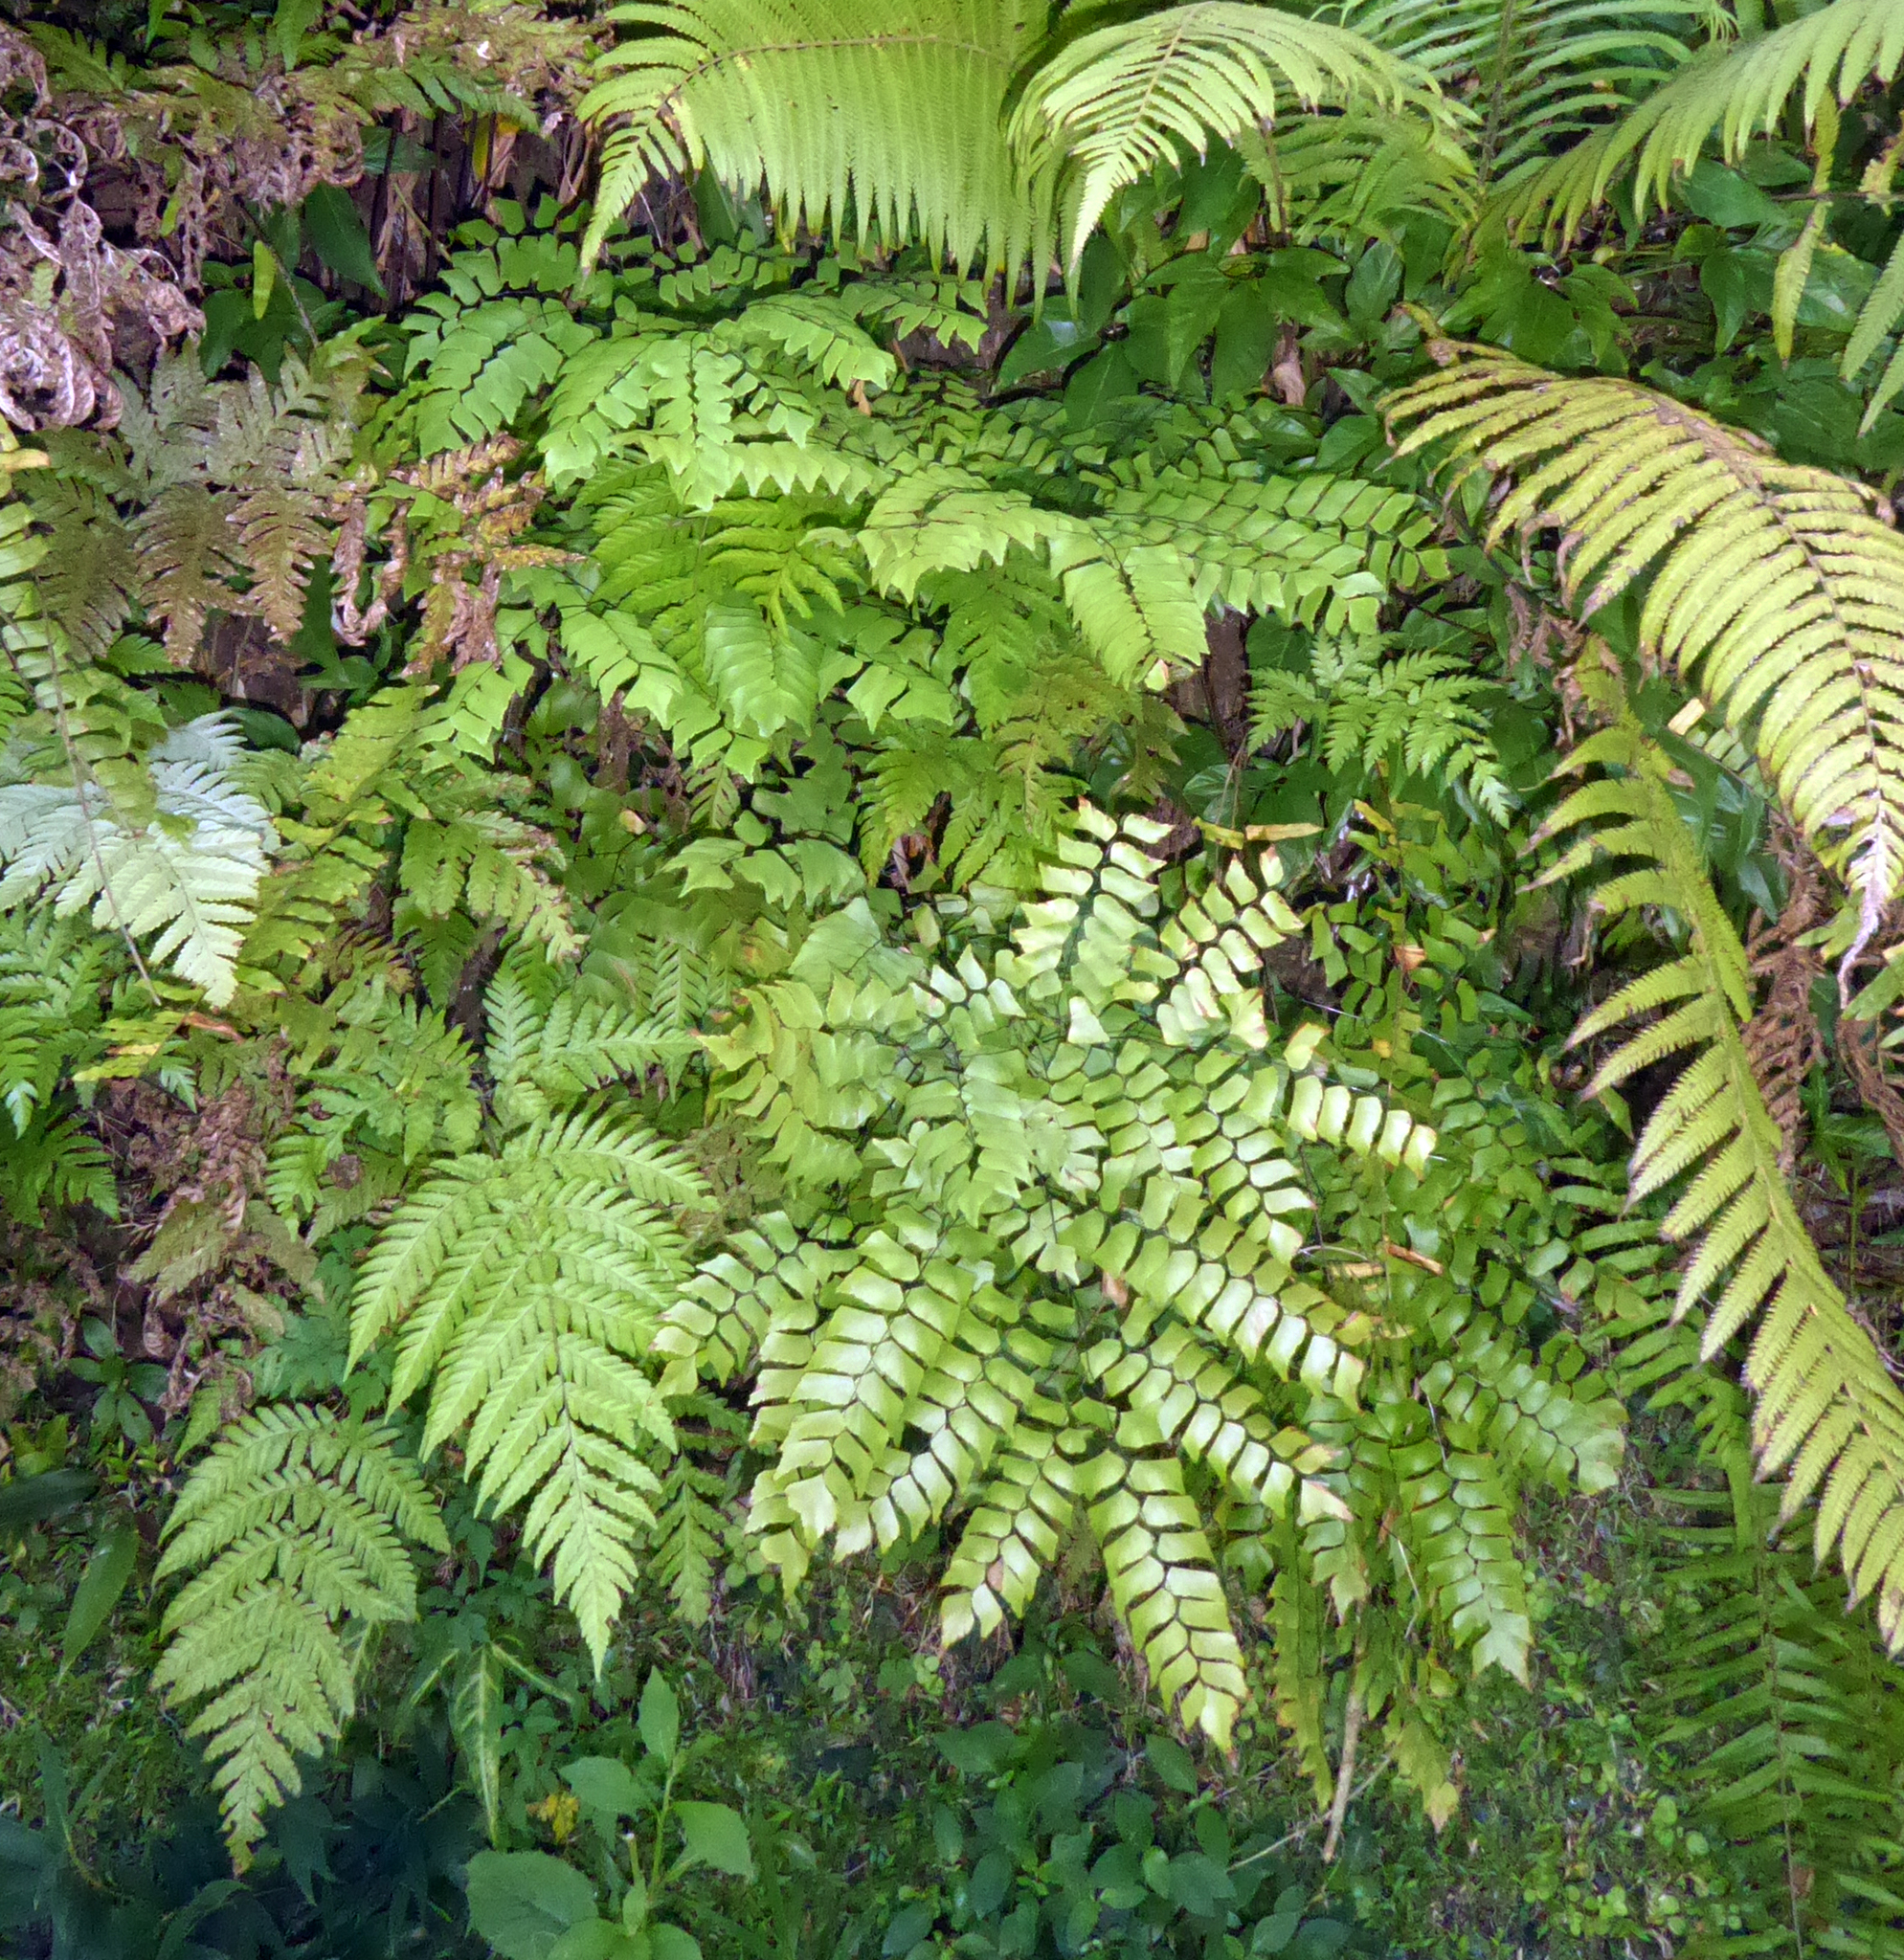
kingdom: Plantae
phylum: Tracheophyta
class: Polypodiopsida
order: Polypodiales
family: Pteridaceae
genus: Adiantum
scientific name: Adiantum trapeziforme
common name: Diamond maidenhair
